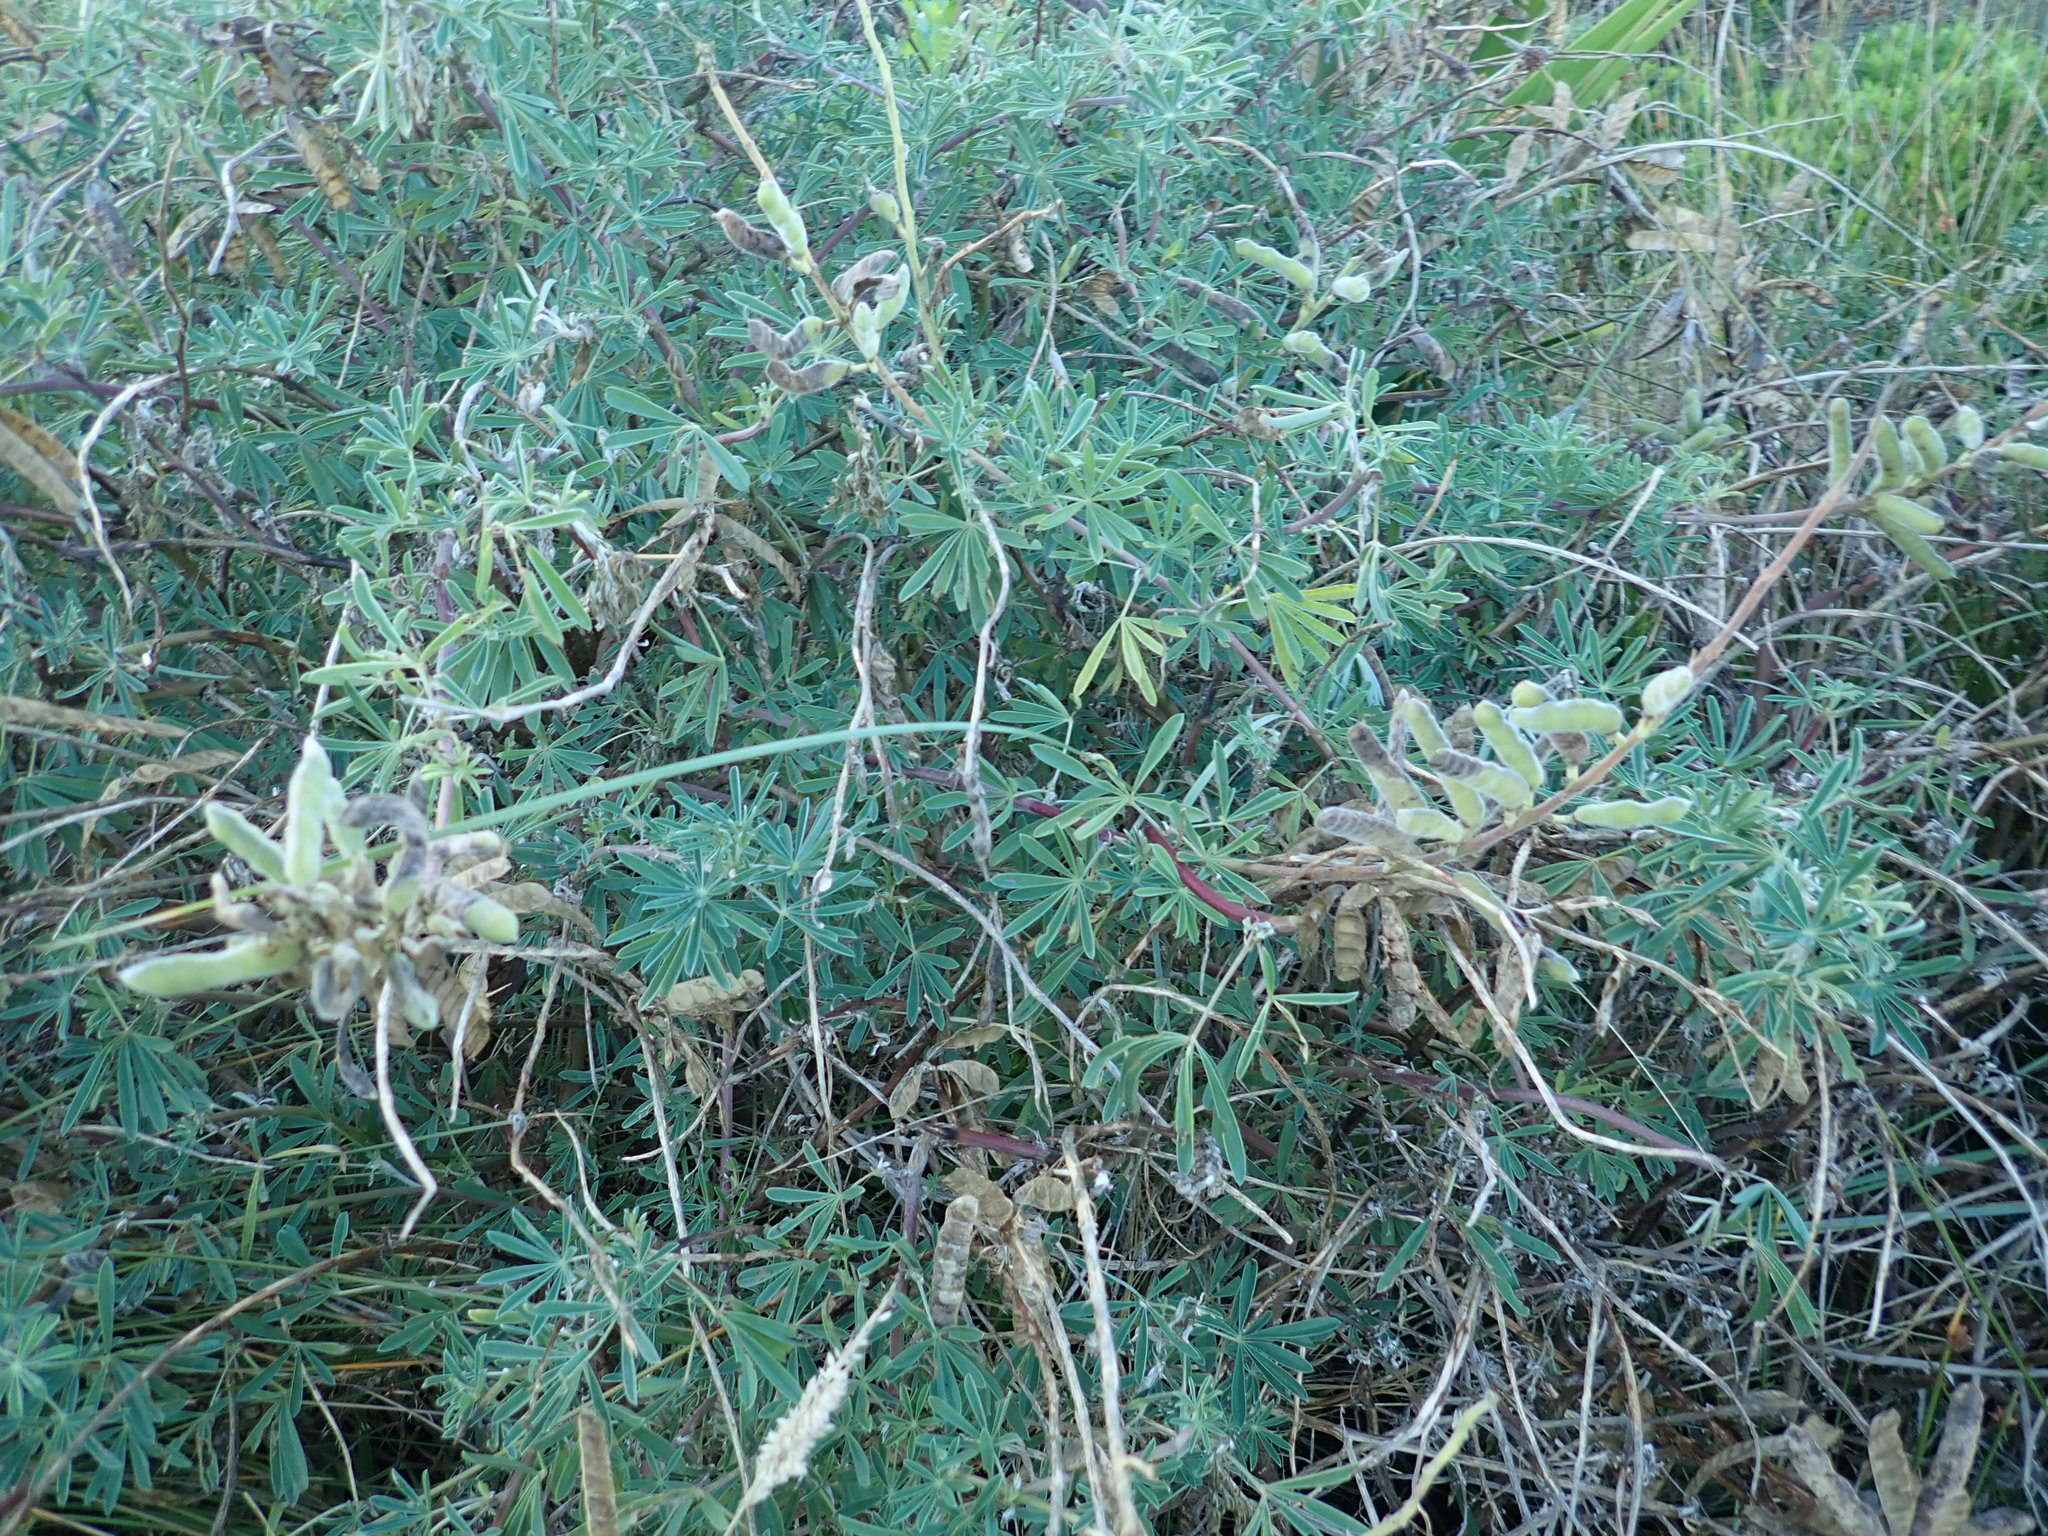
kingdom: Plantae
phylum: Tracheophyta
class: Magnoliopsida
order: Fabales
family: Fabaceae
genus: Lupinus
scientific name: Lupinus arboreus
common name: Yellow bush lupine
